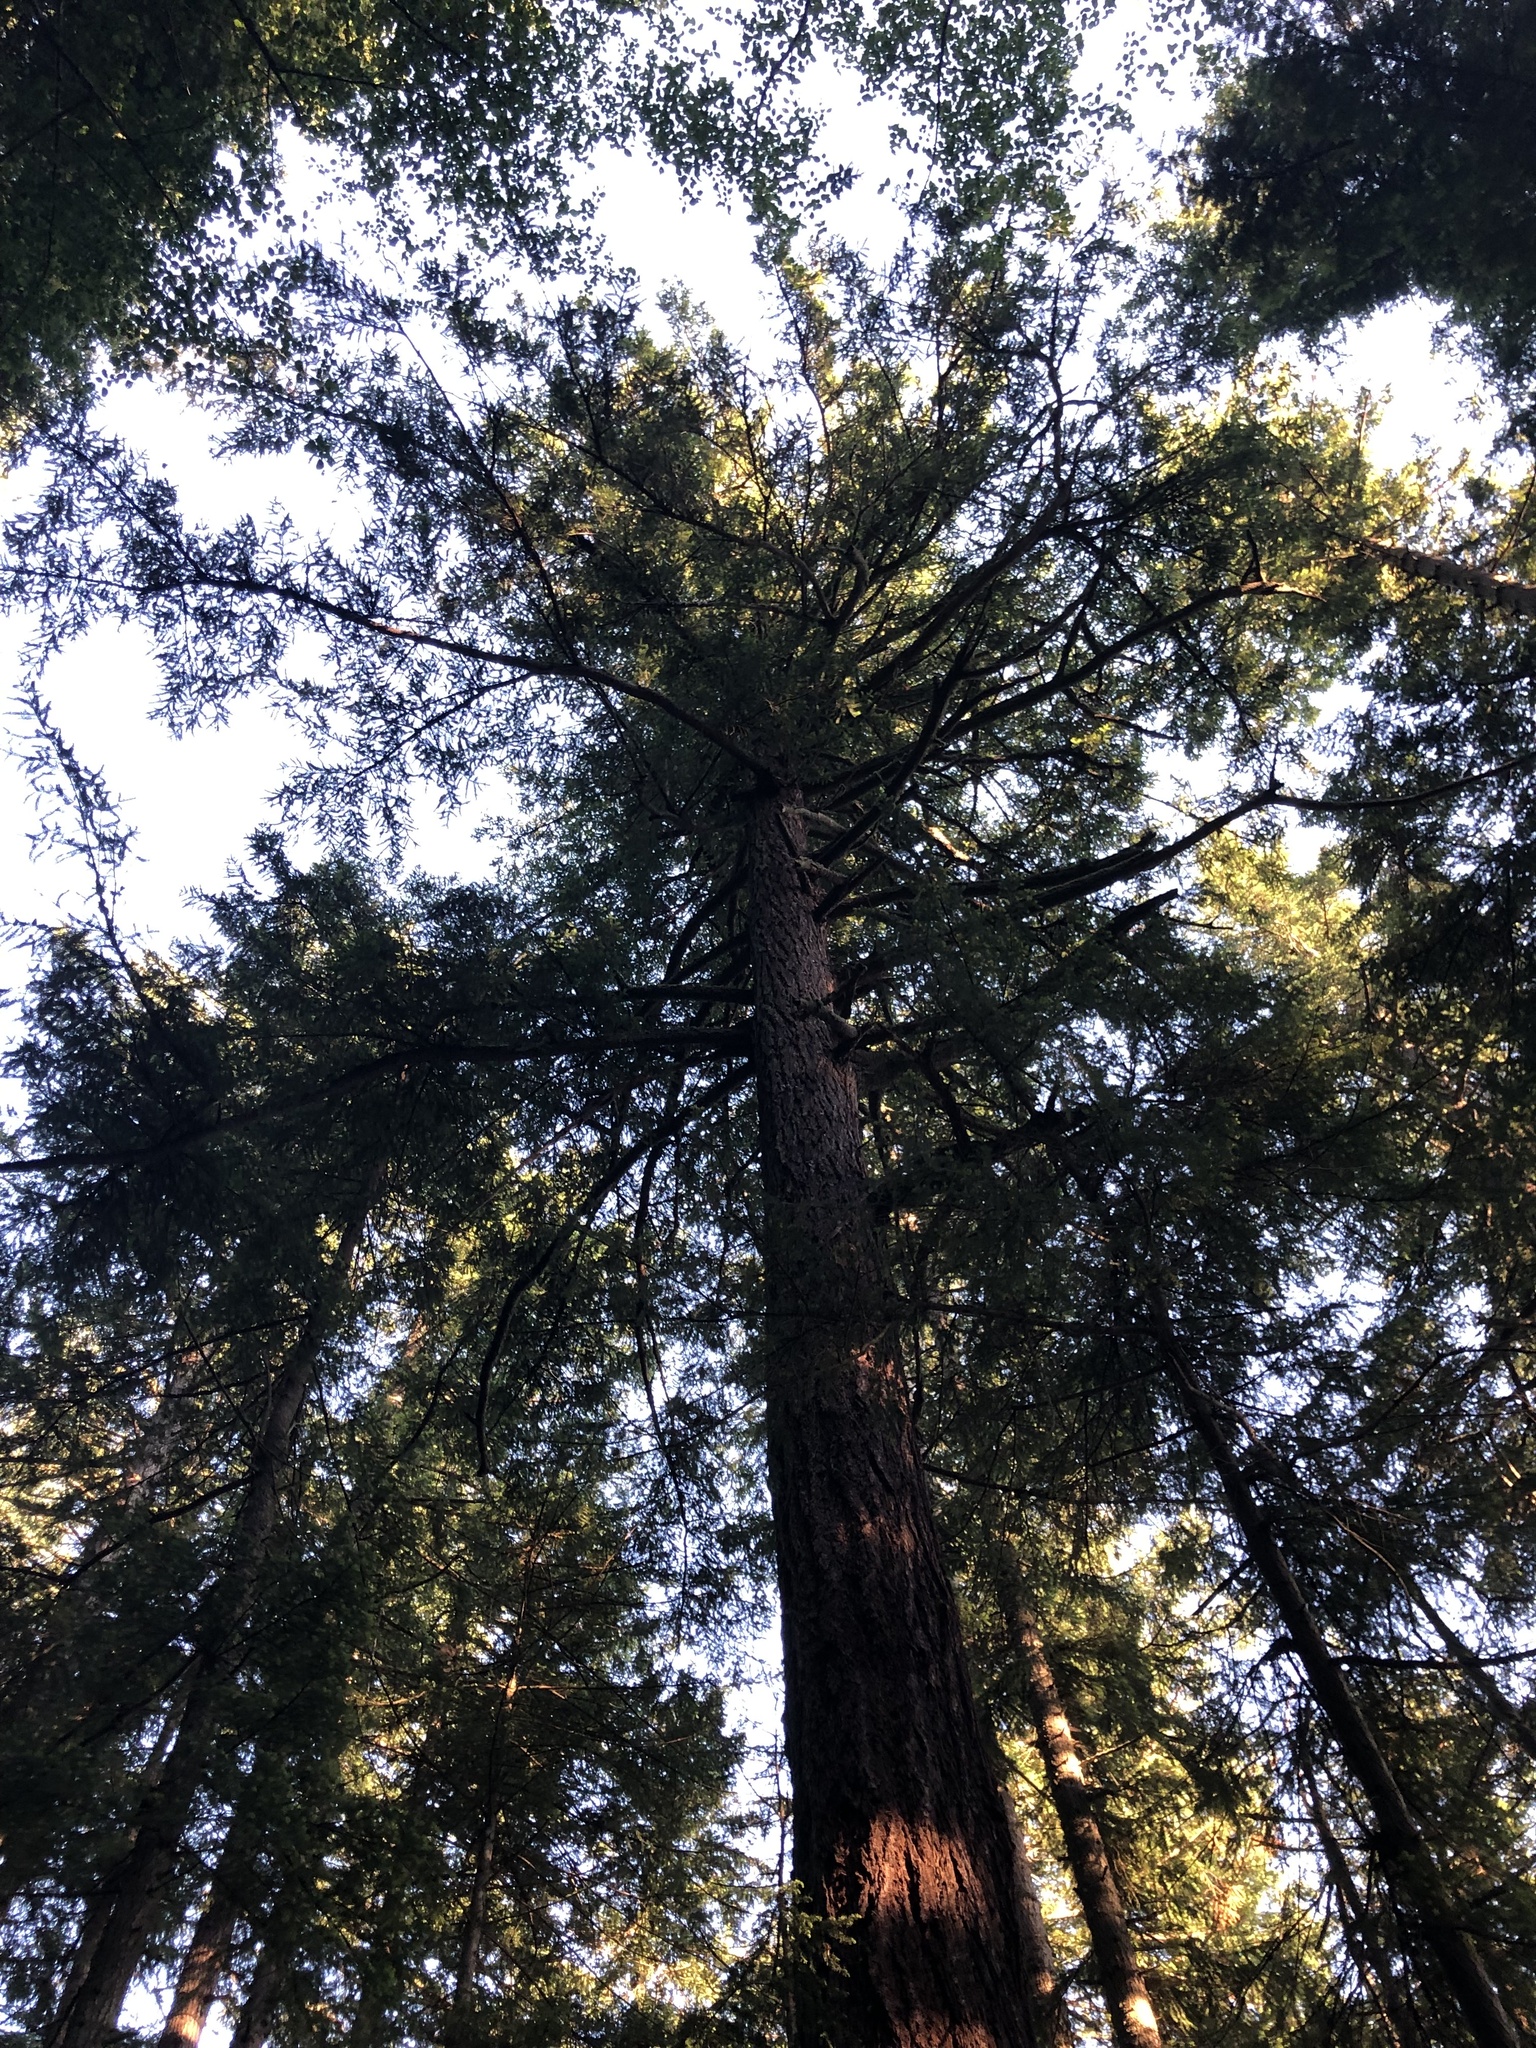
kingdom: Plantae
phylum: Tracheophyta
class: Pinopsida
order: Pinales
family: Pinaceae
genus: Pseudotsuga
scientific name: Pseudotsuga menziesii
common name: Douglas fir
